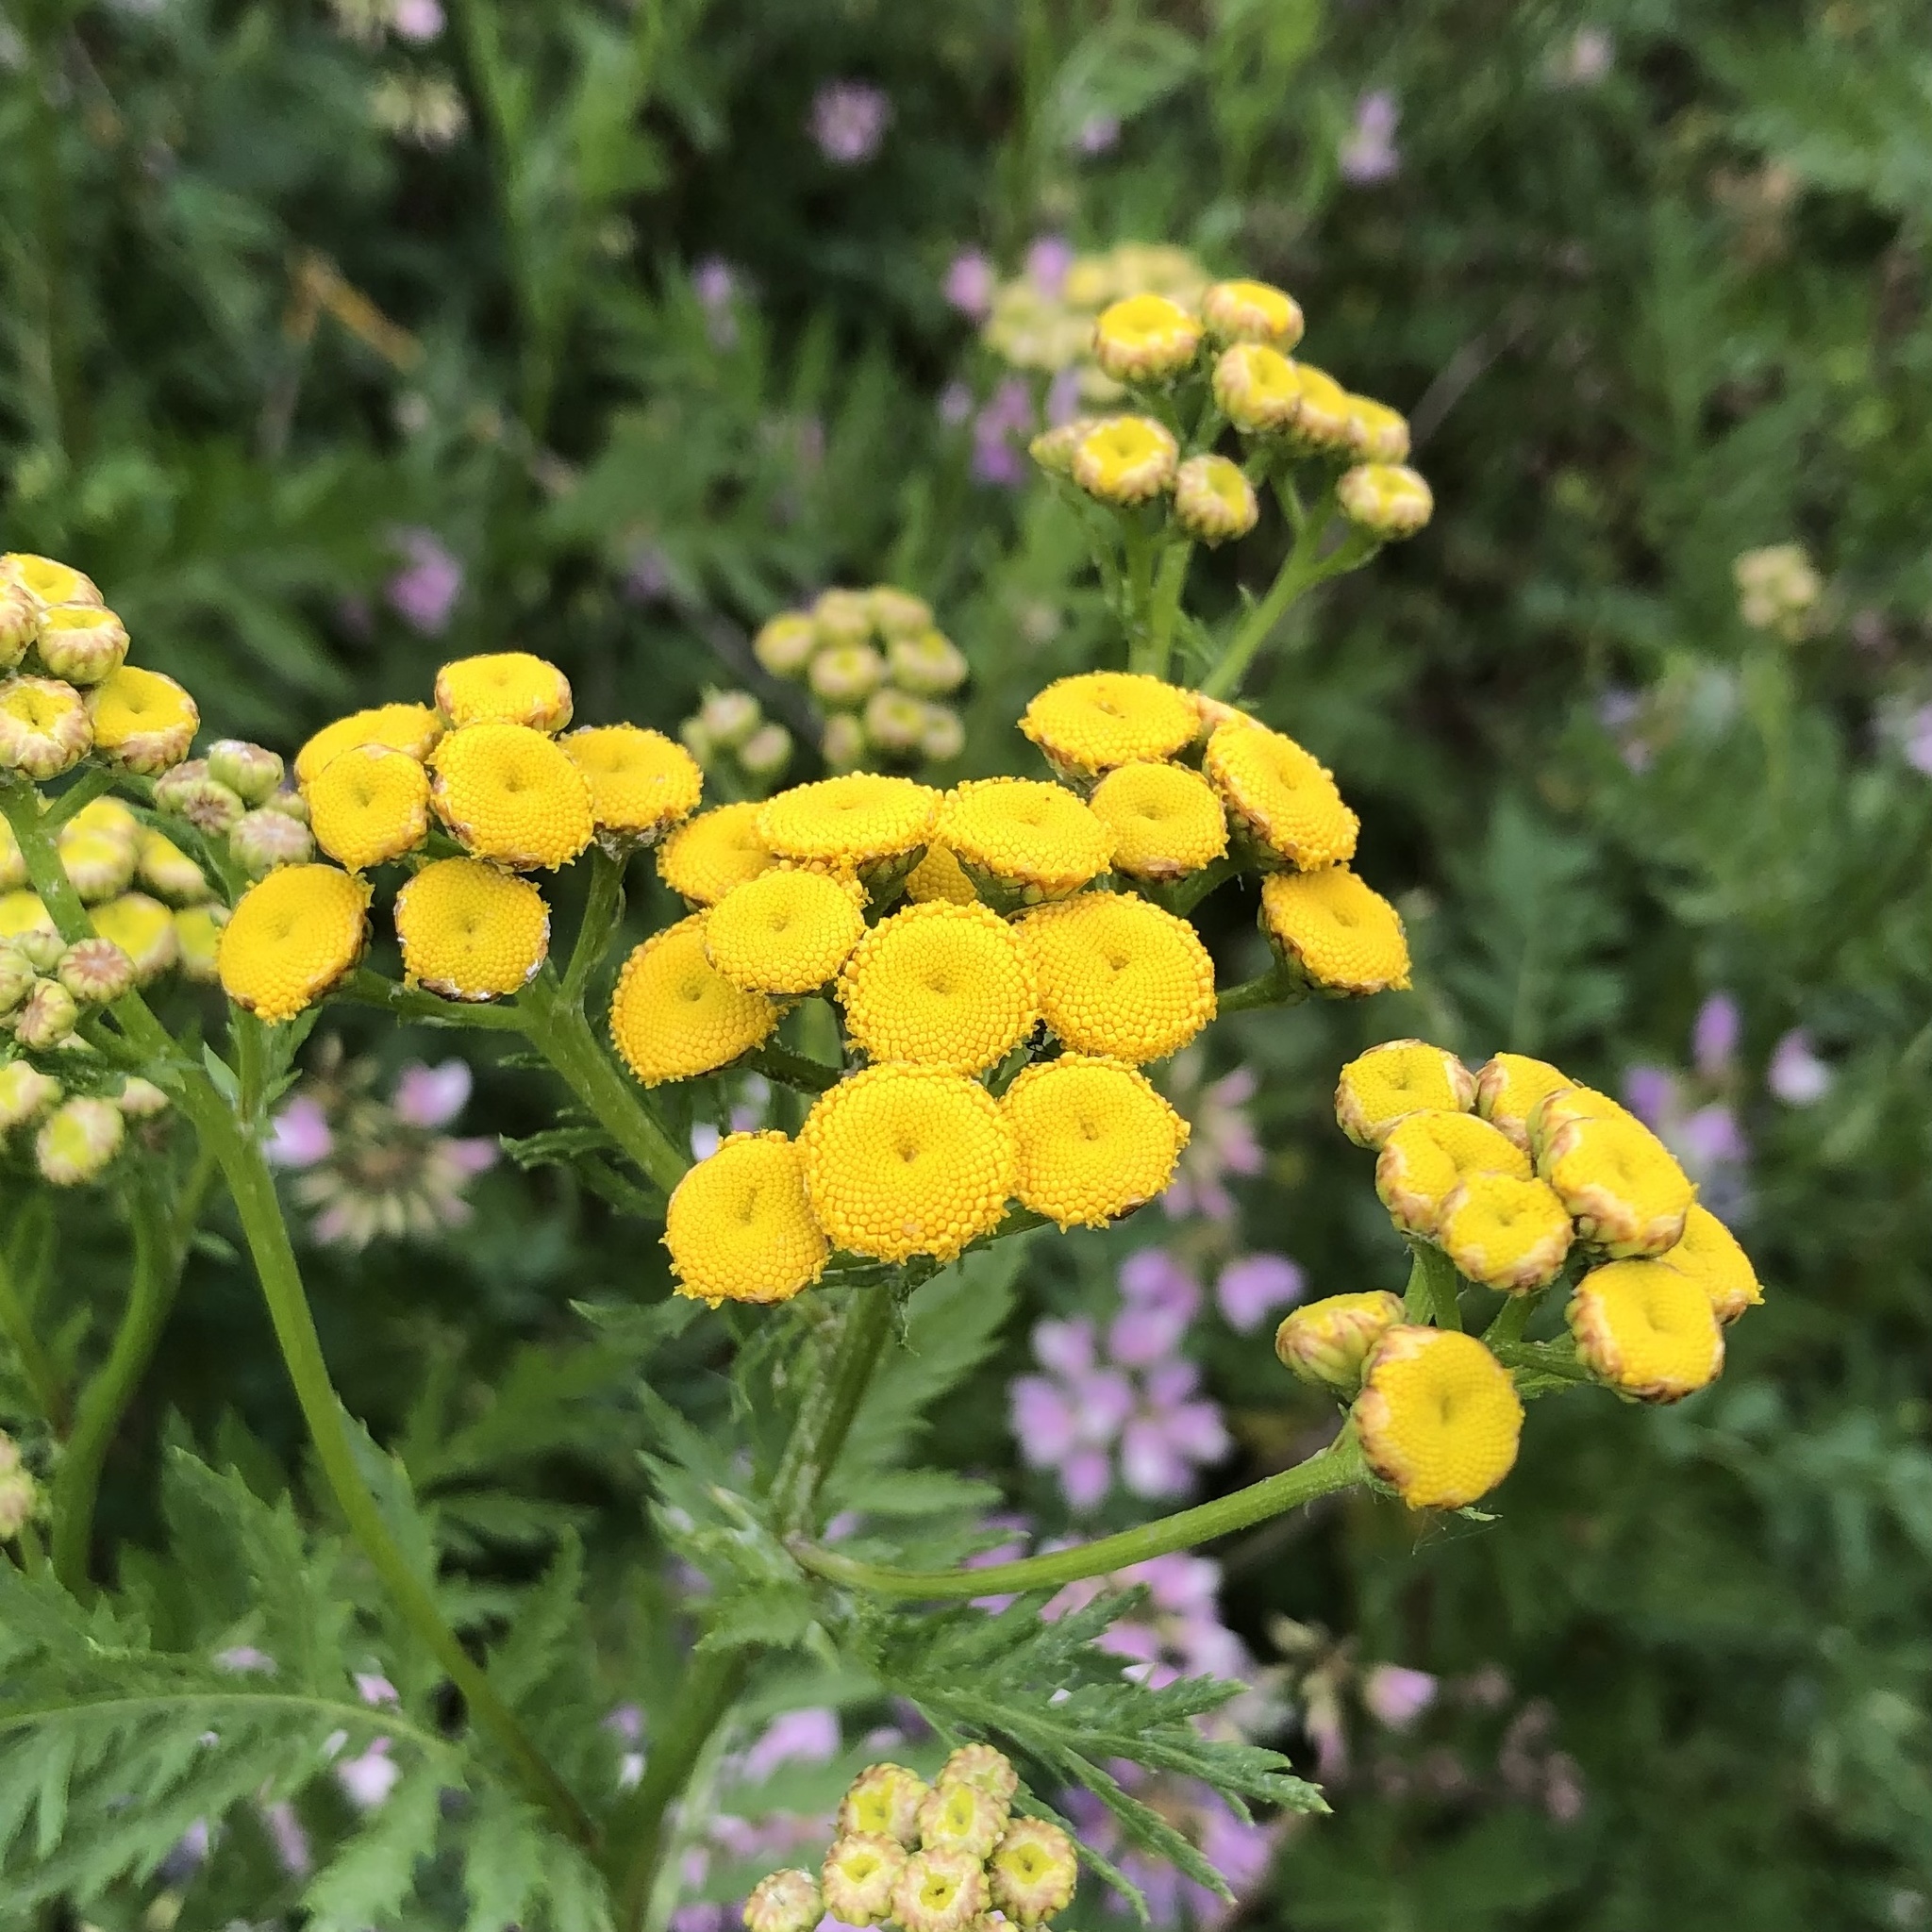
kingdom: Plantae
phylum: Tracheophyta
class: Magnoliopsida
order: Asterales
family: Asteraceae
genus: Tanacetum
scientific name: Tanacetum vulgare
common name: Common tansy
